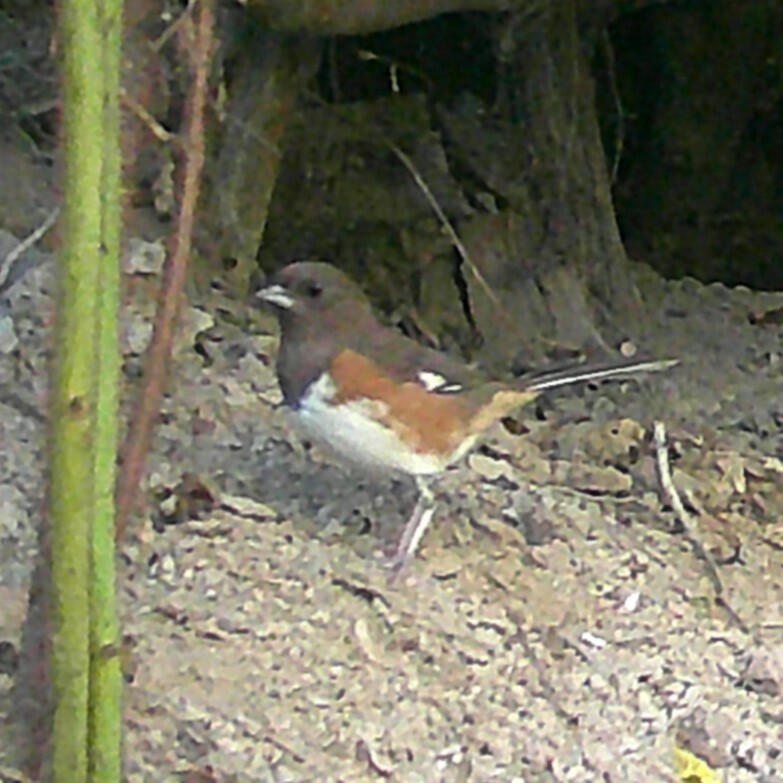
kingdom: Animalia
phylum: Chordata
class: Aves
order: Passeriformes
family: Passerellidae
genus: Pipilo
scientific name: Pipilo erythrophthalmus
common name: Eastern towhee
